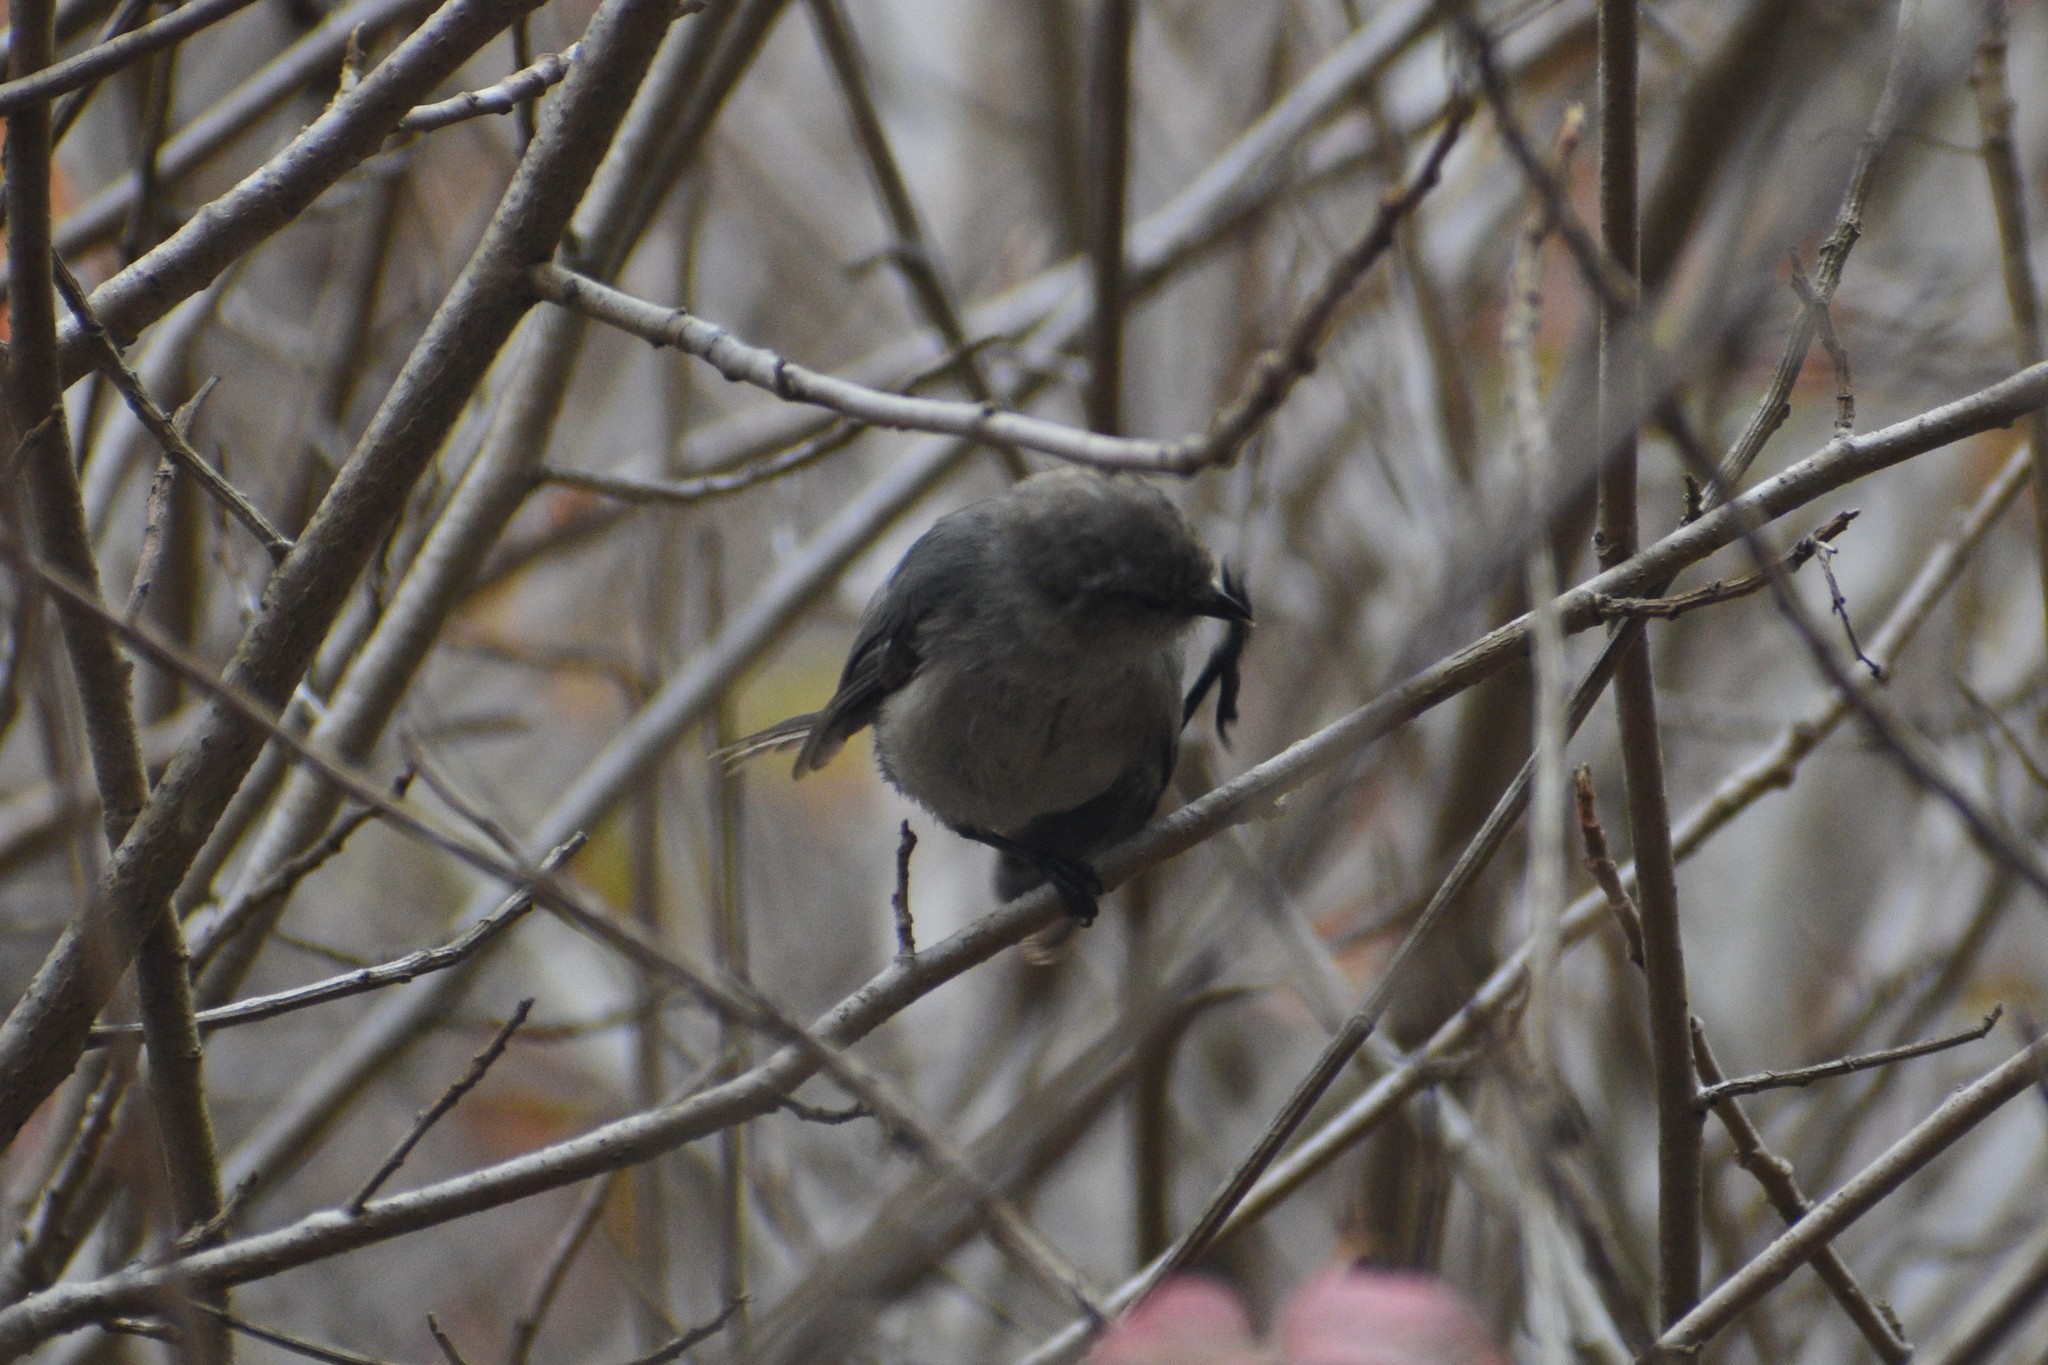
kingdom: Animalia
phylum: Chordata
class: Aves
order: Passeriformes
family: Aegithalidae
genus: Psaltriparus
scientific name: Psaltriparus minimus
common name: American bushtit
